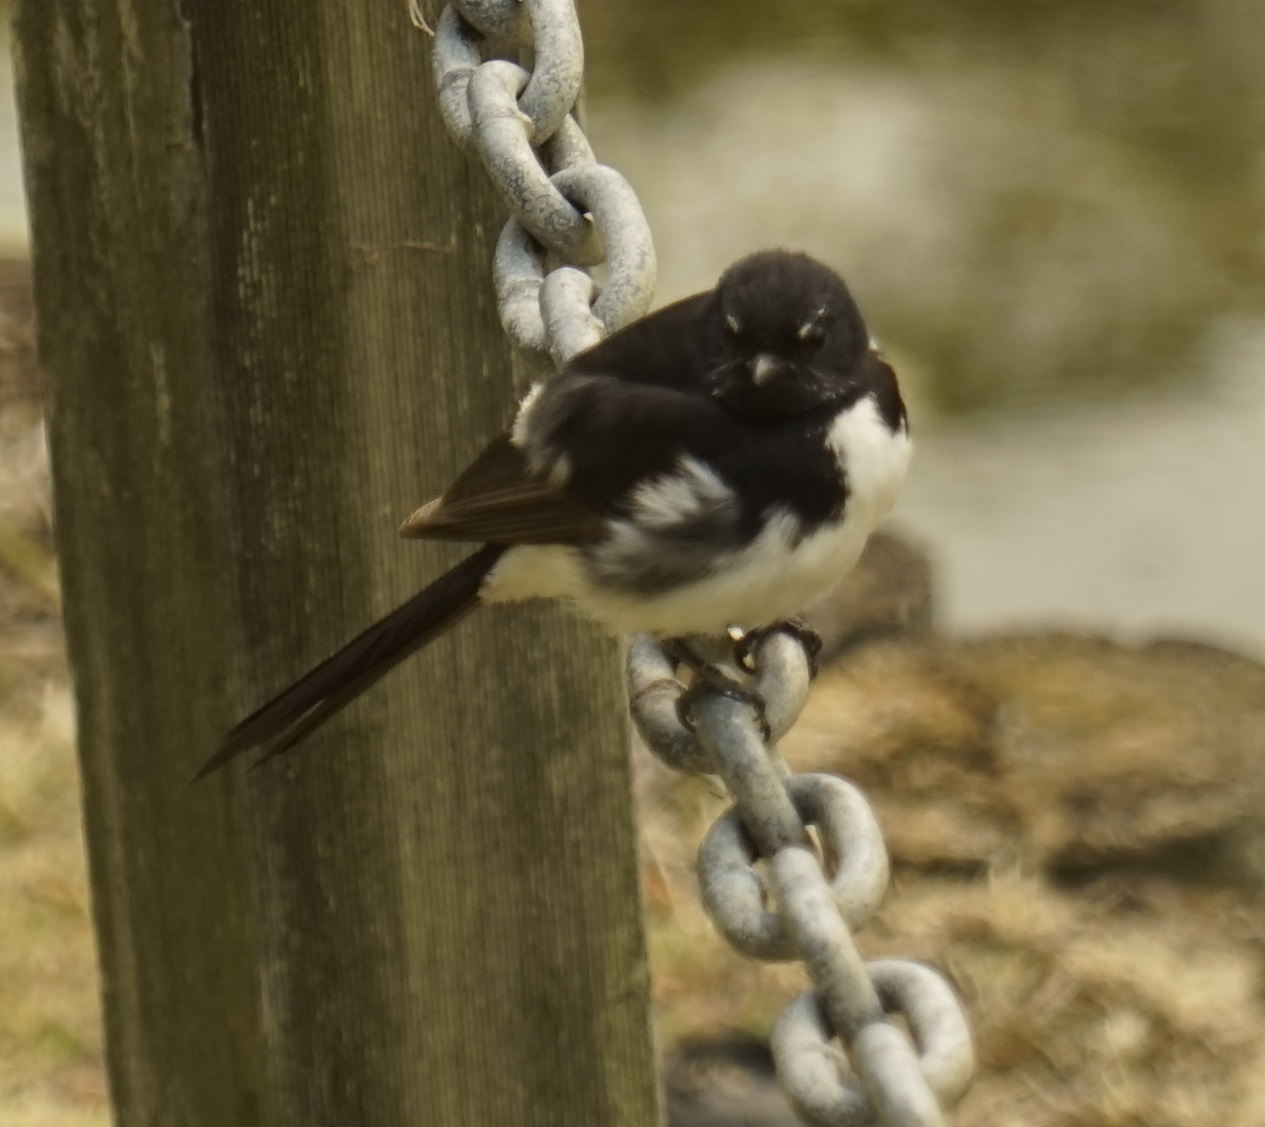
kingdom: Animalia
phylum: Chordata
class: Aves
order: Passeriformes
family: Rhipiduridae
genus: Rhipidura
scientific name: Rhipidura leucophrys
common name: Willie wagtail
